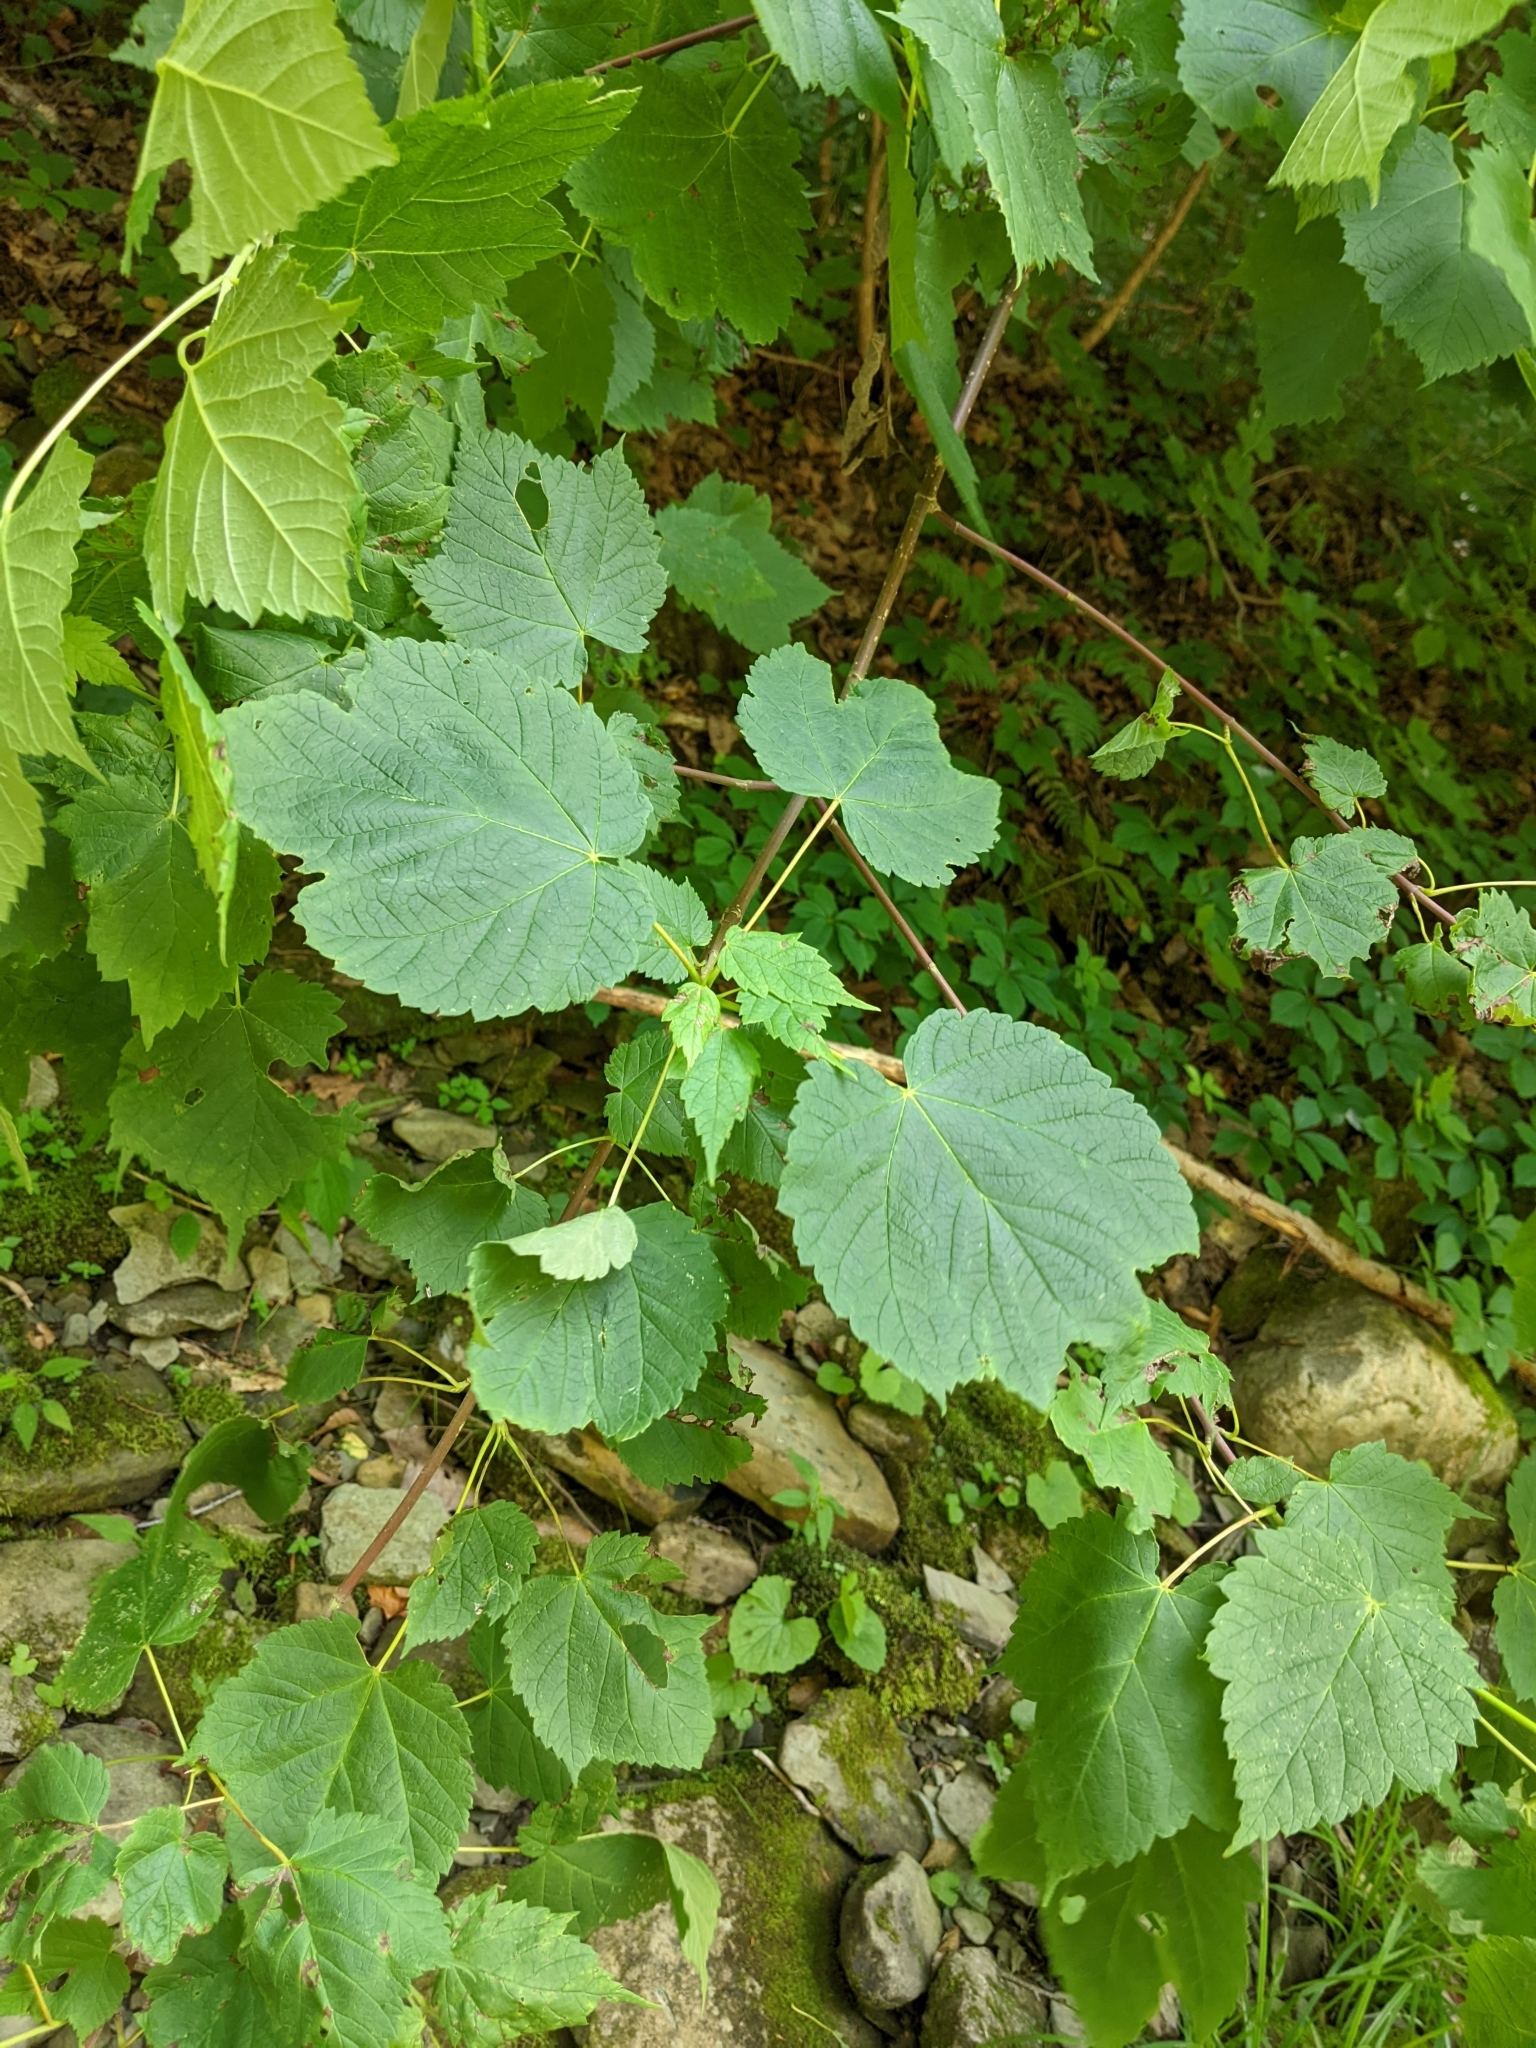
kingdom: Plantae
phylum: Tracheophyta
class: Magnoliopsida
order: Sapindales
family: Sapindaceae
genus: Acer
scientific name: Acer spicatum
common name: Mountain maple
